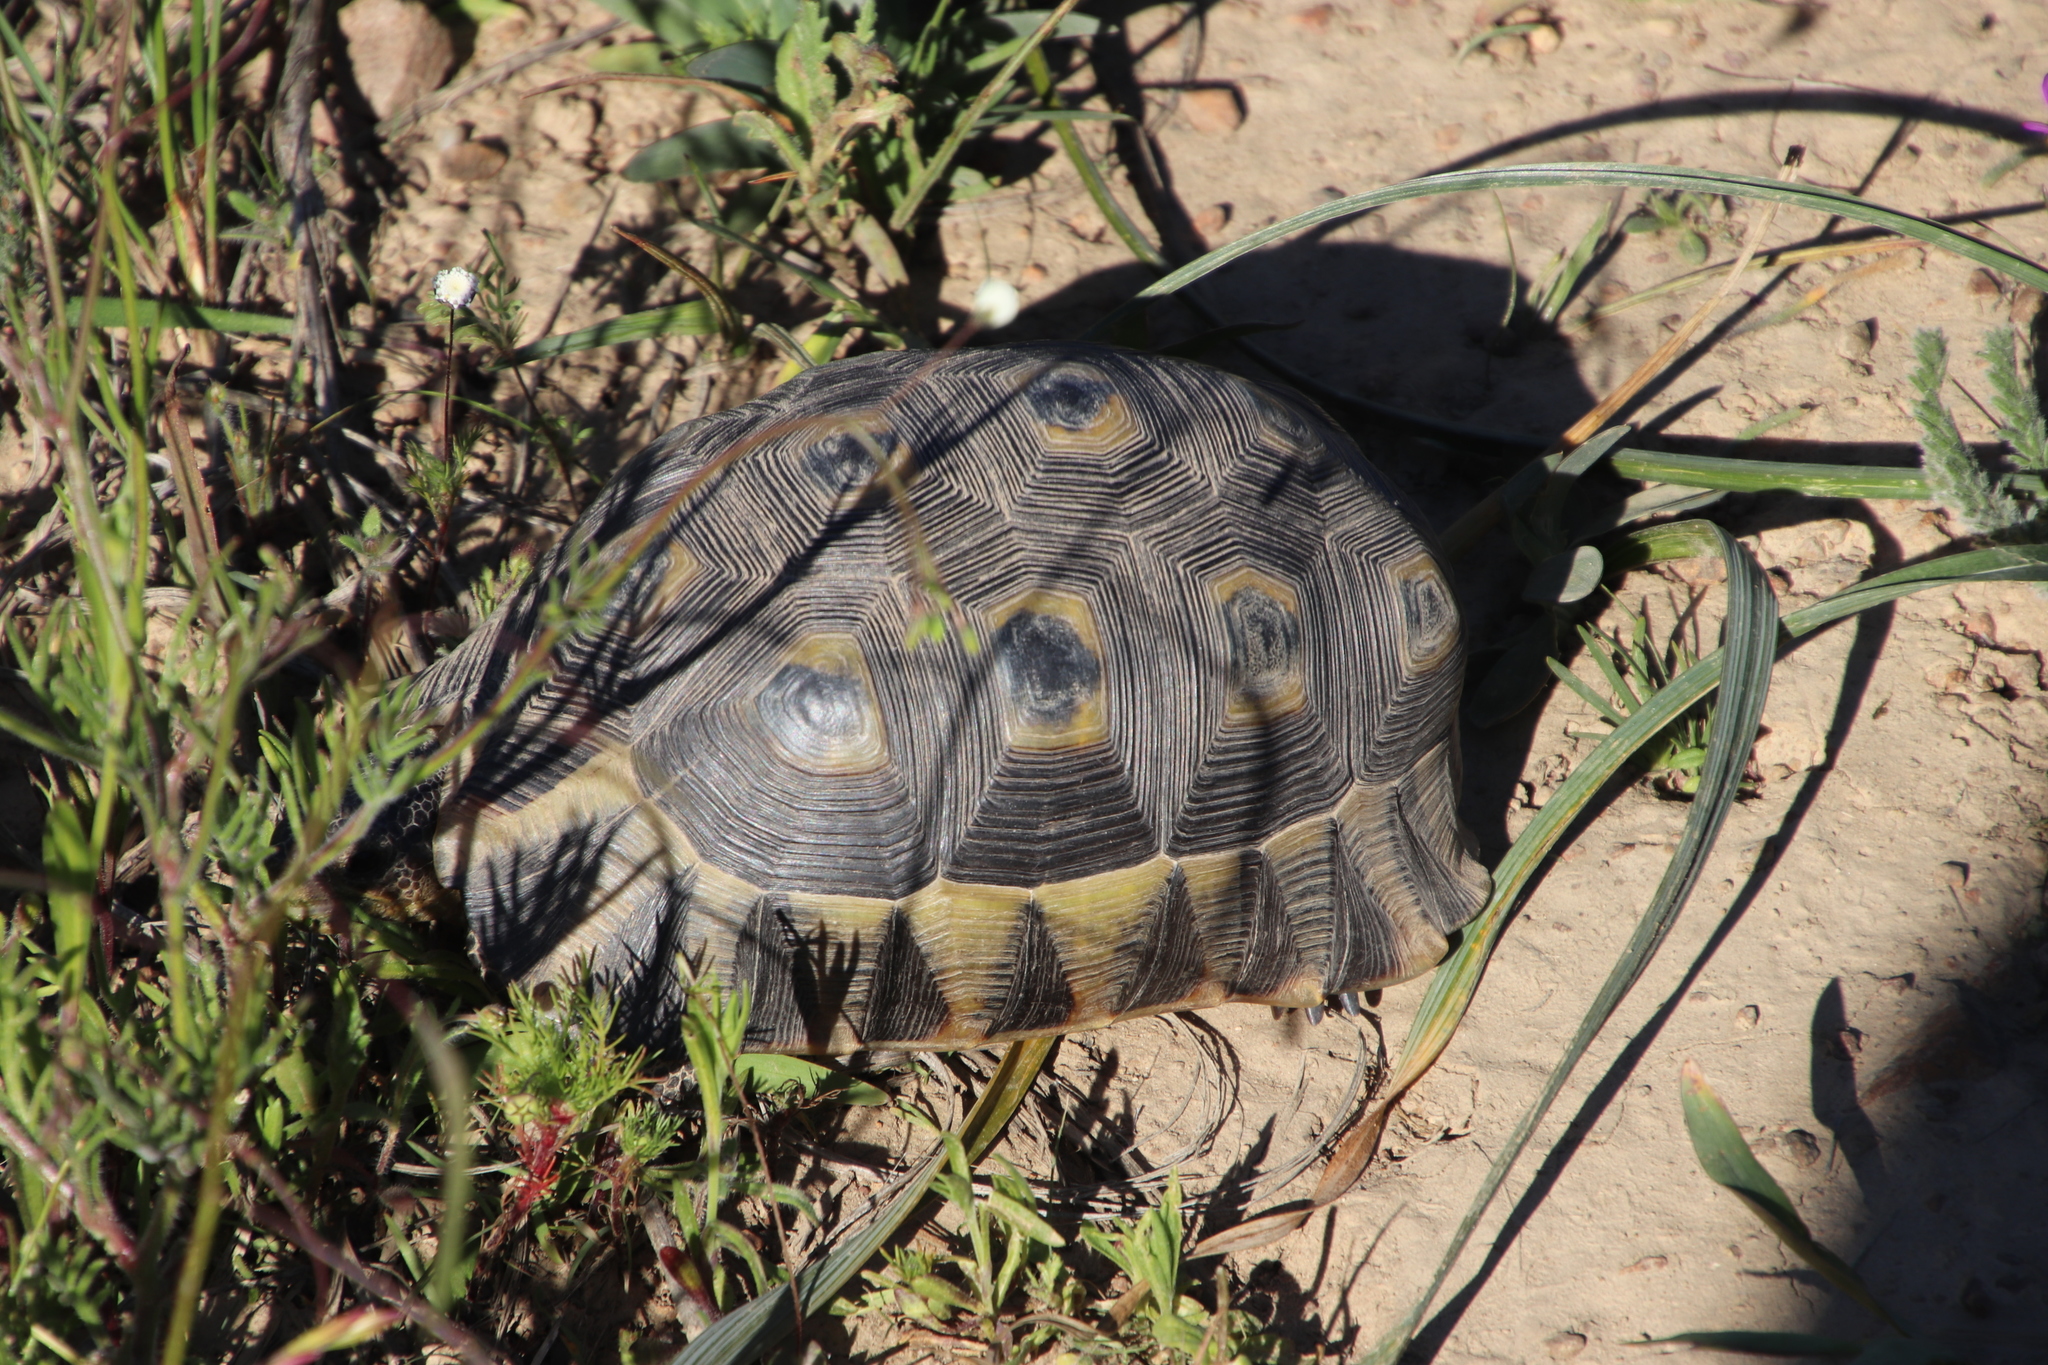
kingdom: Animalia
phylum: Chordata
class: Testudines
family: Testudinidae
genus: Chersina
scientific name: Chersina angulata
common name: South african bowsprit tortoise
